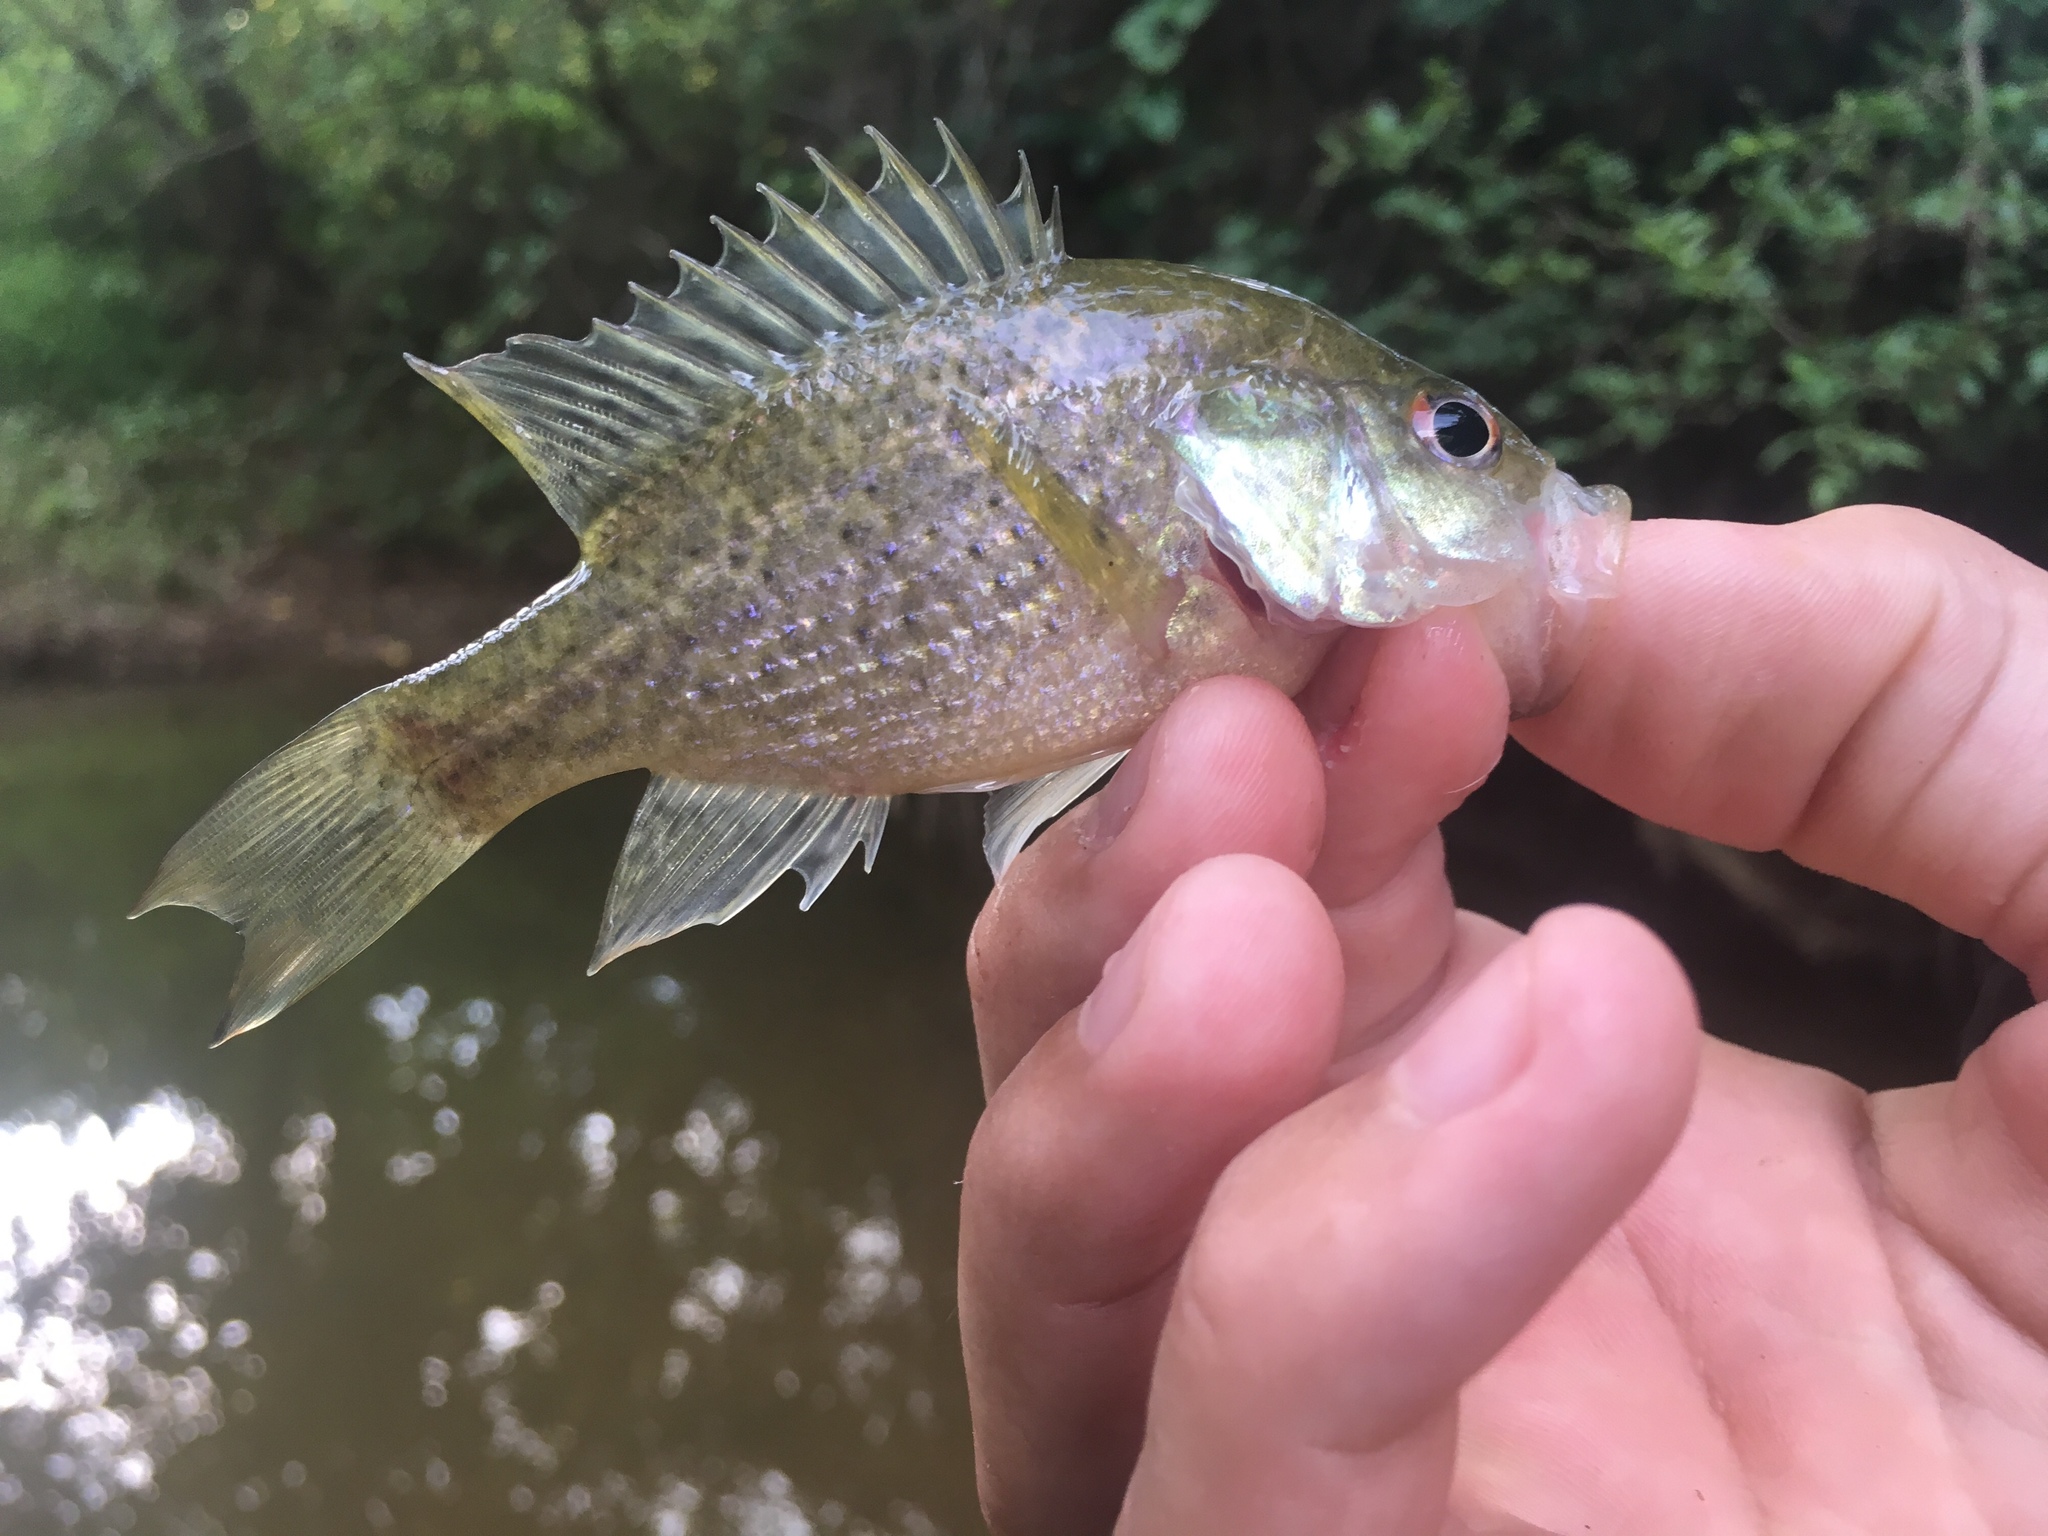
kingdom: Animalia
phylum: Chordata
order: Perciformes
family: Centrarchidae
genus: Lepomis
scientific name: Lepomis gulosus
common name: Warmouth
